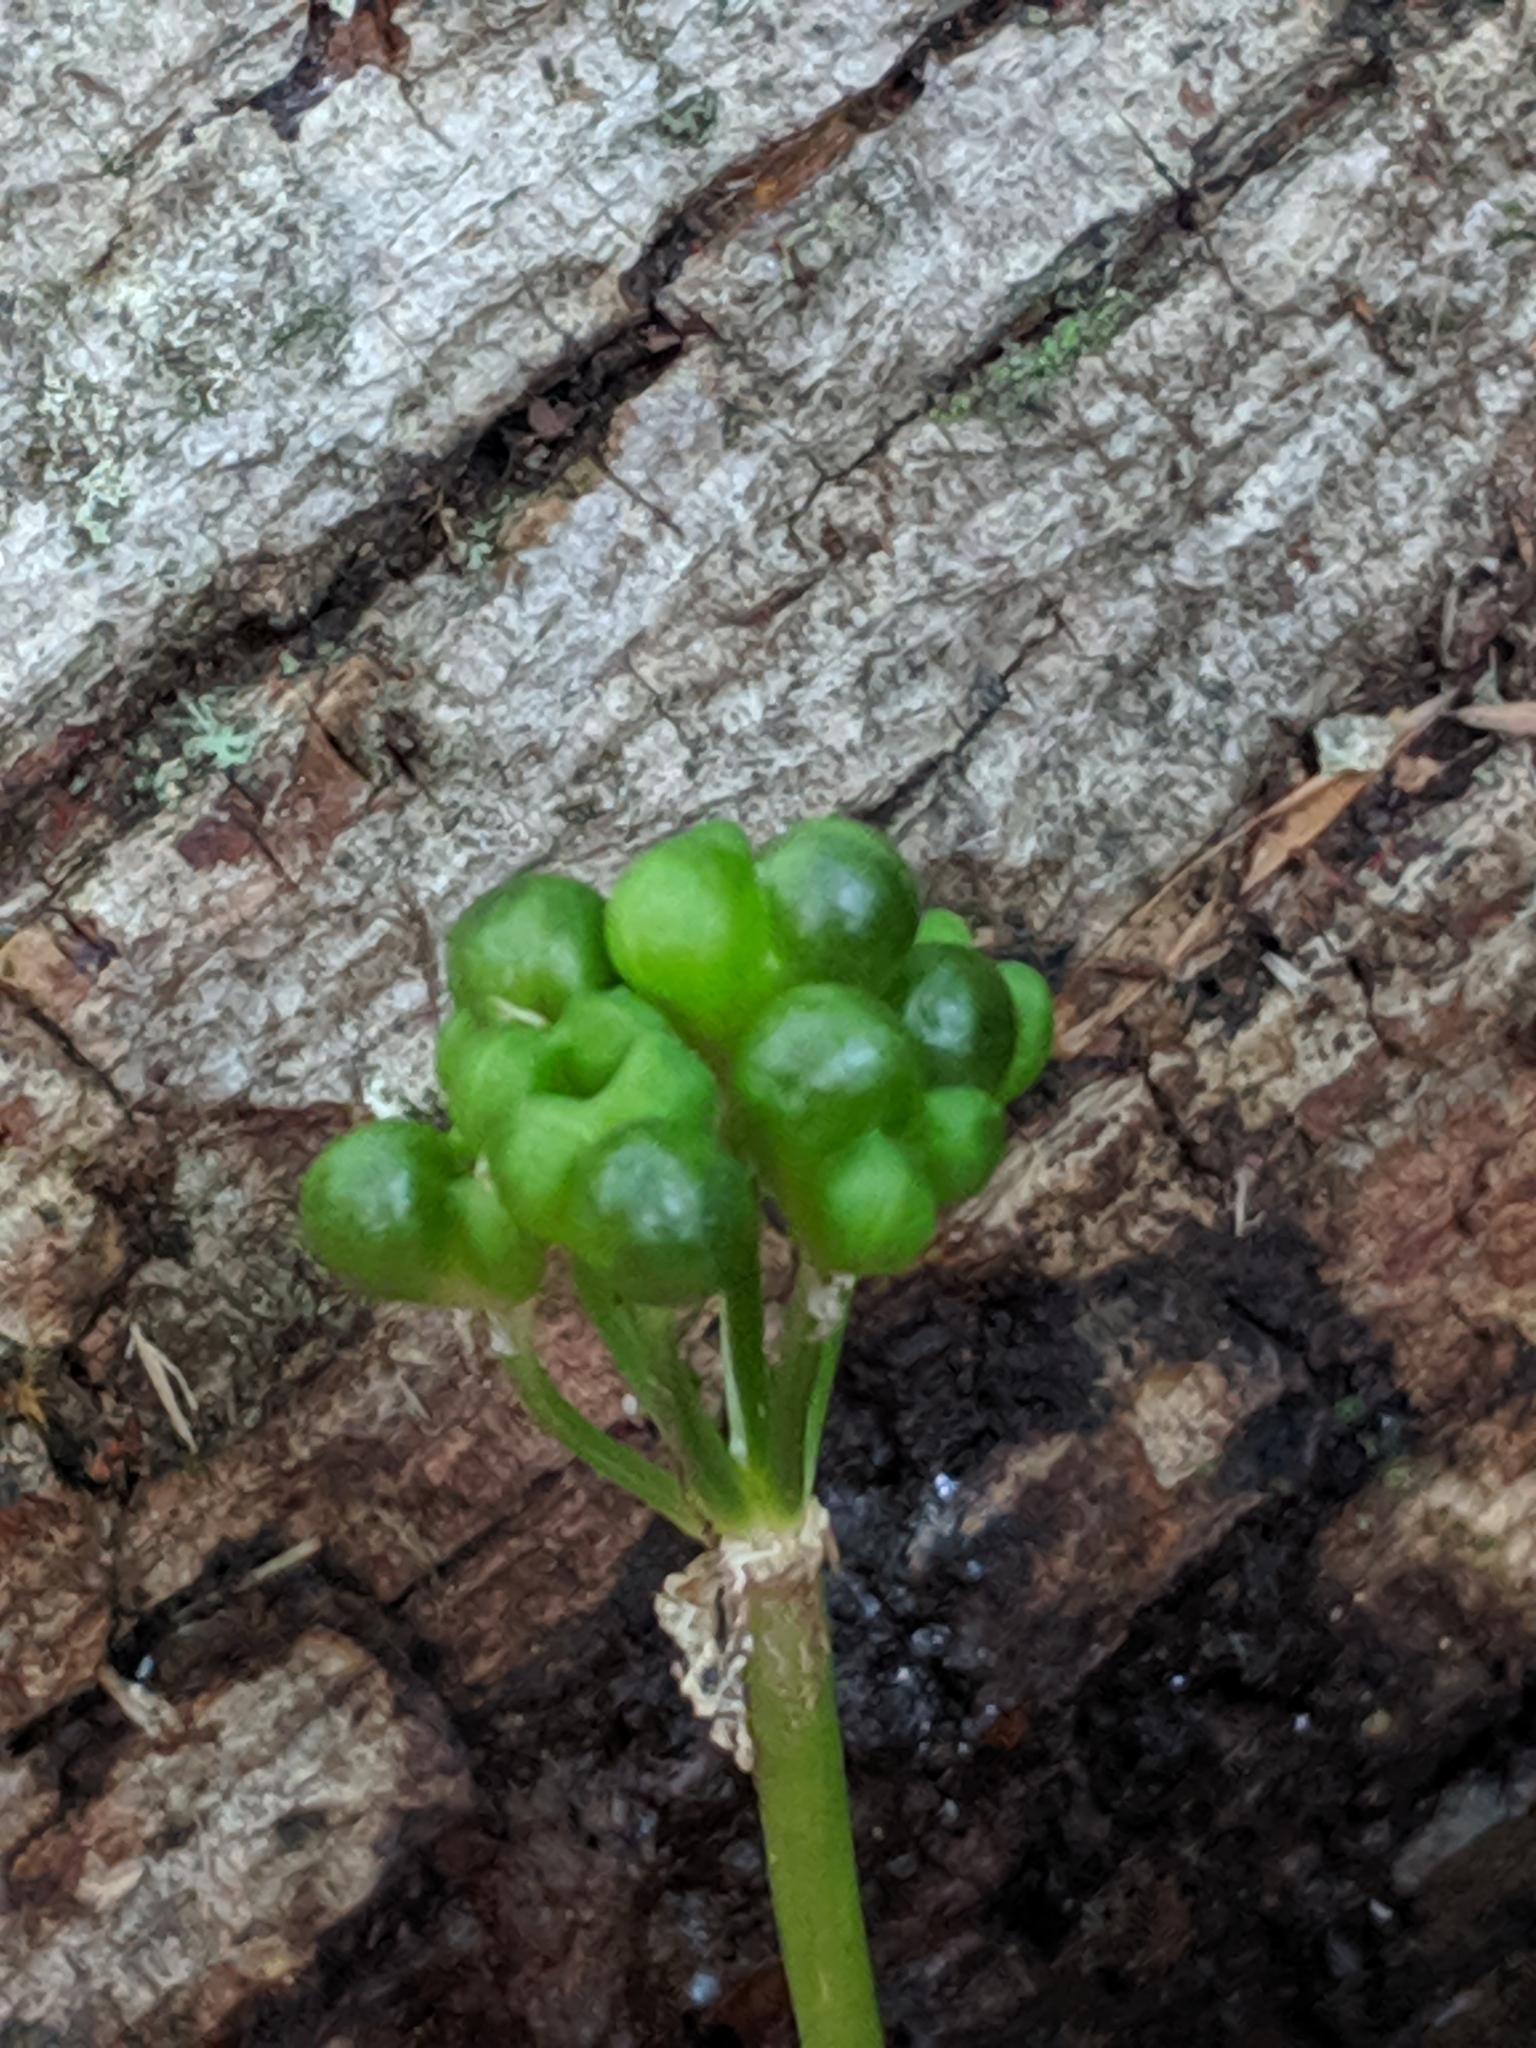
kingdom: Plantae
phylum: Tracheophyta
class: Liliopsida
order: Asparagales
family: Amaryllidaceae
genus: Allium
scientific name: Allium tricoccum
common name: Ramp
